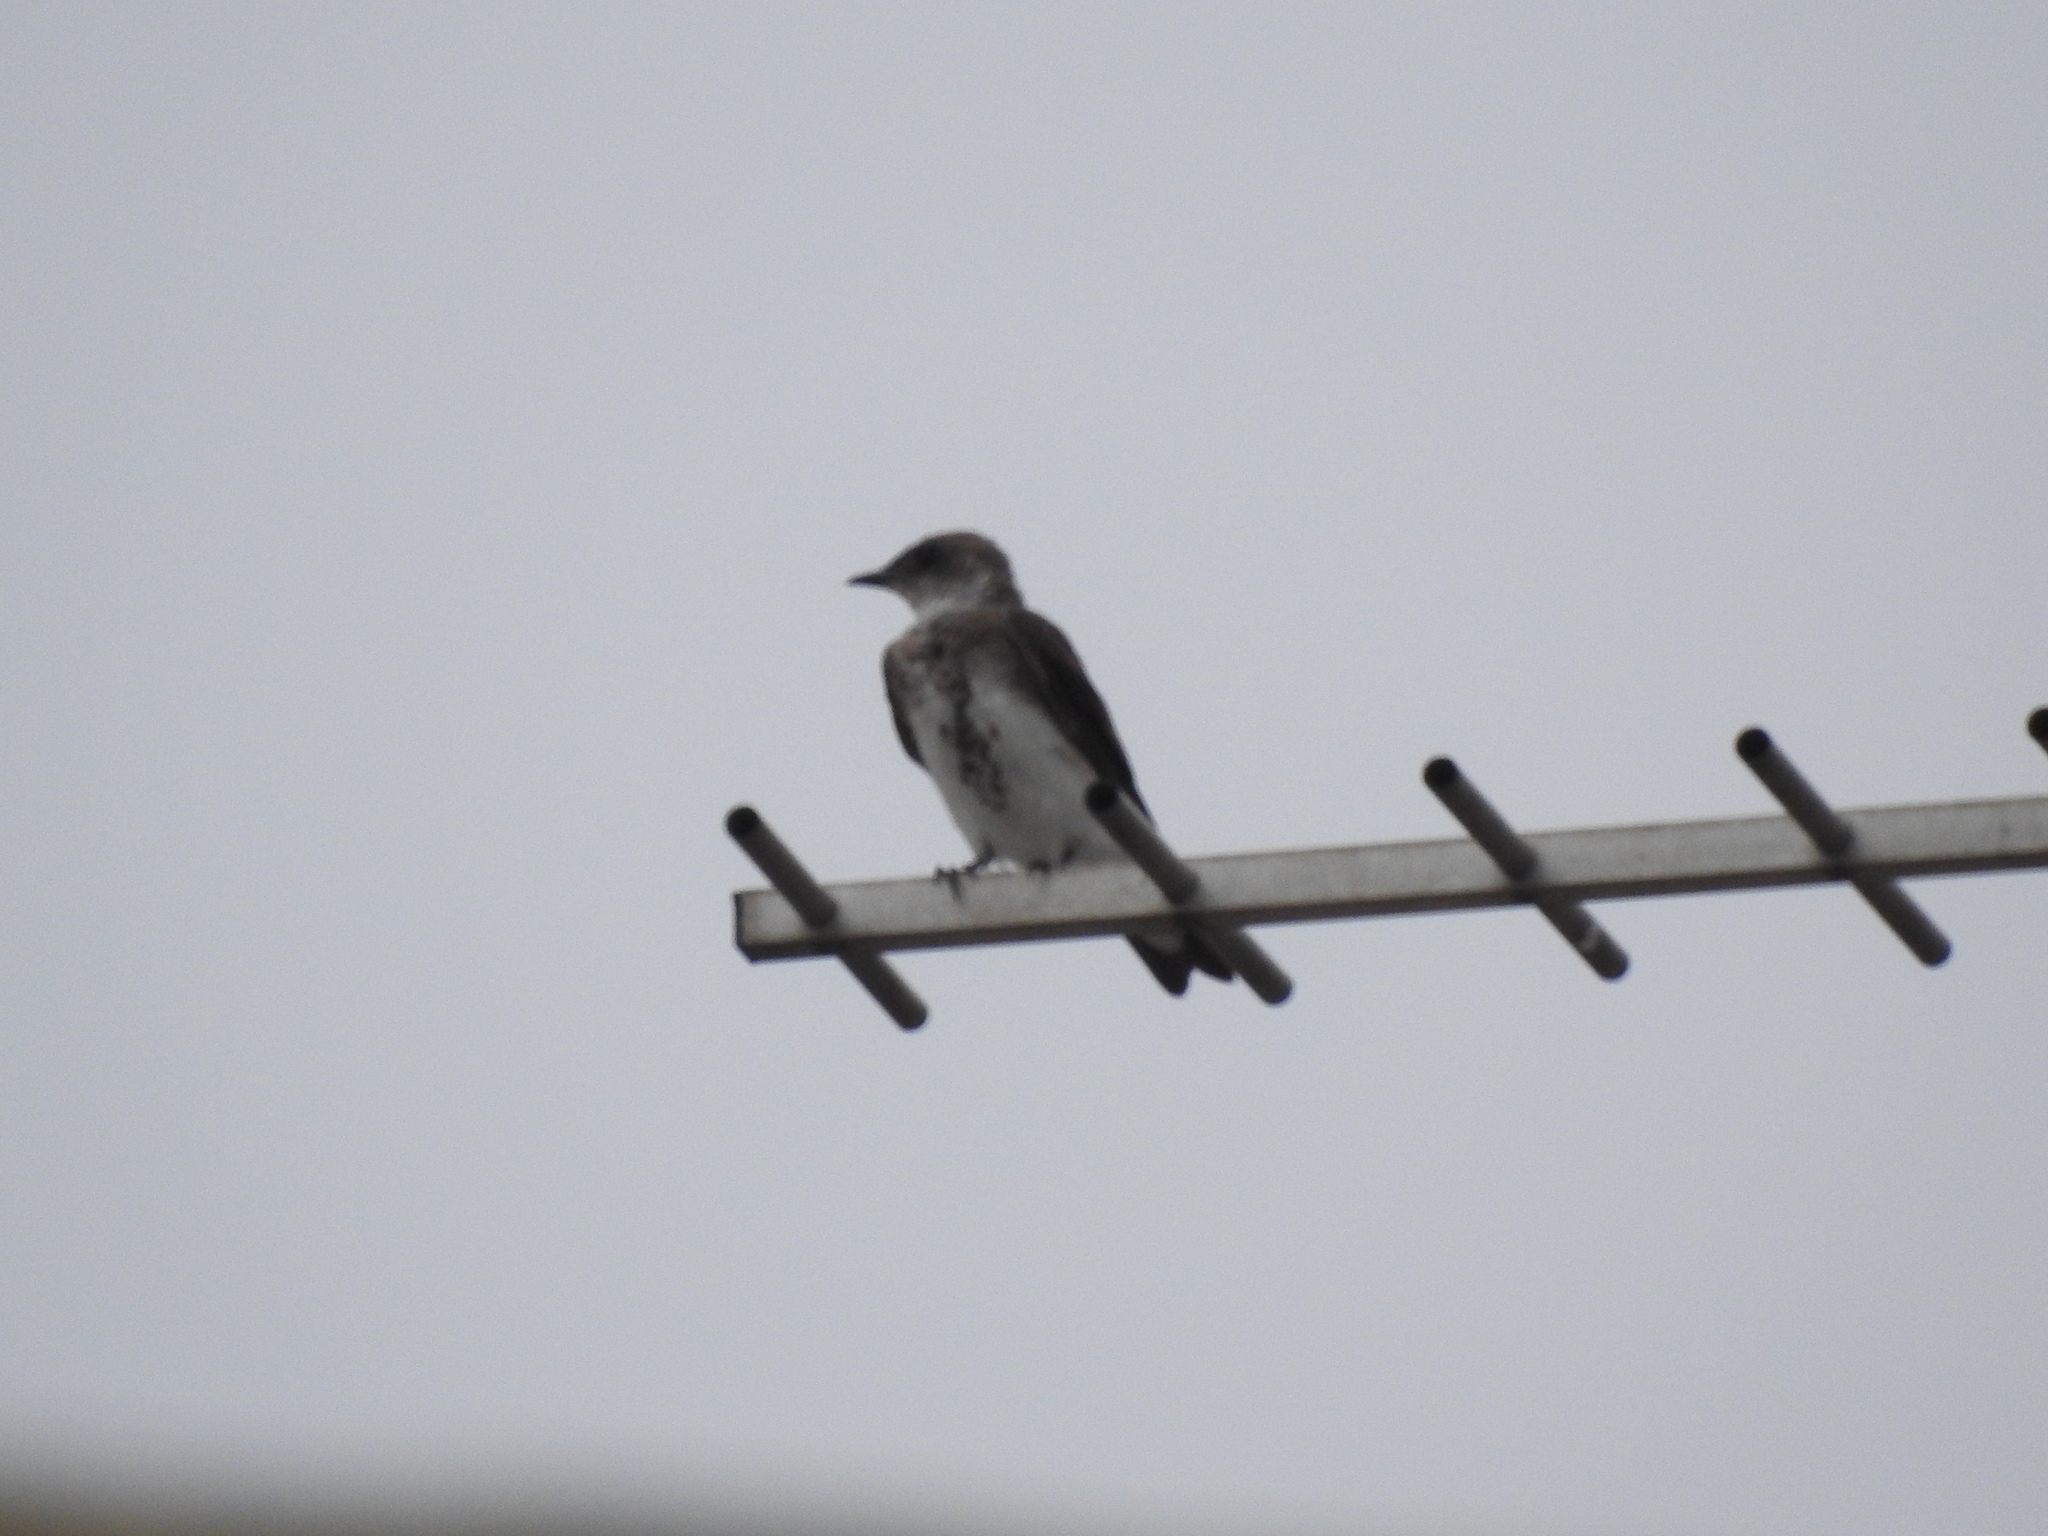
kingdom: Animalia
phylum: Chordata
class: Aves
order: Passeriformes
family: Hirundinidae
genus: Progne
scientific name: Progne tapera
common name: Brown-chested martin
